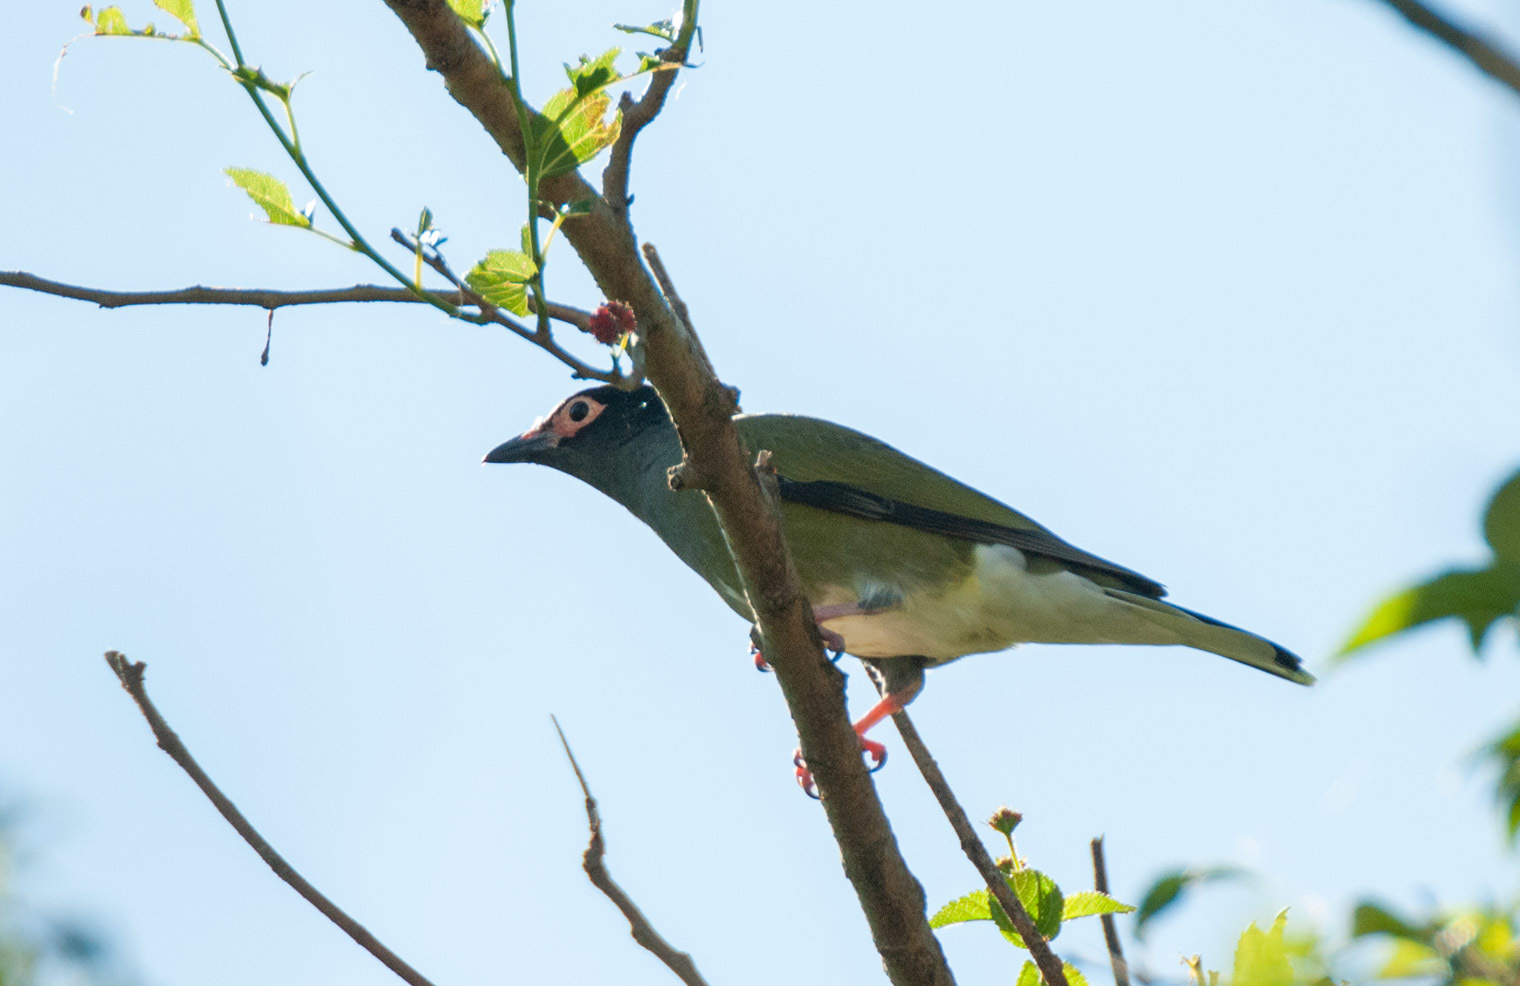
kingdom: Animalia
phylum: Chordata
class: Aves
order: Passeriformes
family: Oriolidae
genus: Sphecotheres
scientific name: Sphecotheres vieilloti
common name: Australasian figbird
